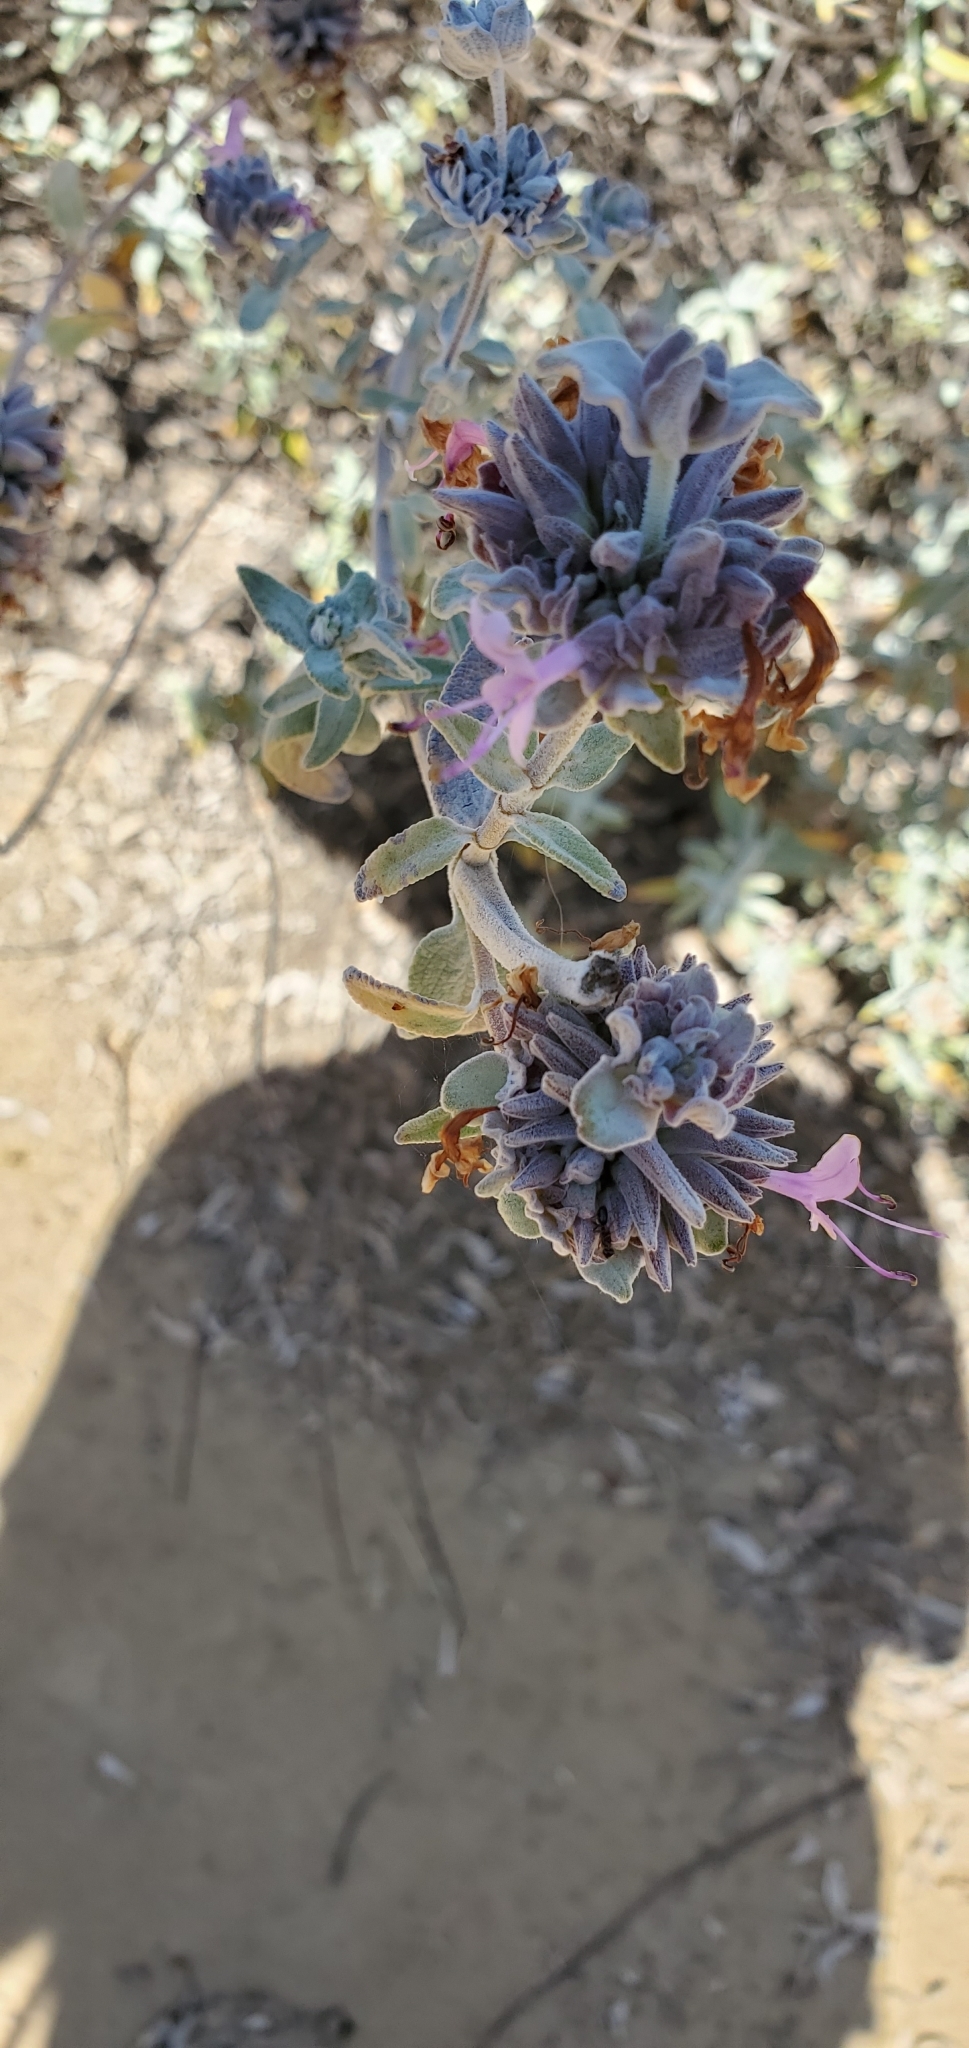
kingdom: Plantae
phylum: Tracheophyta
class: Magnoliopsida
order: Lamiales
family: Lamiaceae
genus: Salvia
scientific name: Salvia leucophylla
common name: Purple sage
